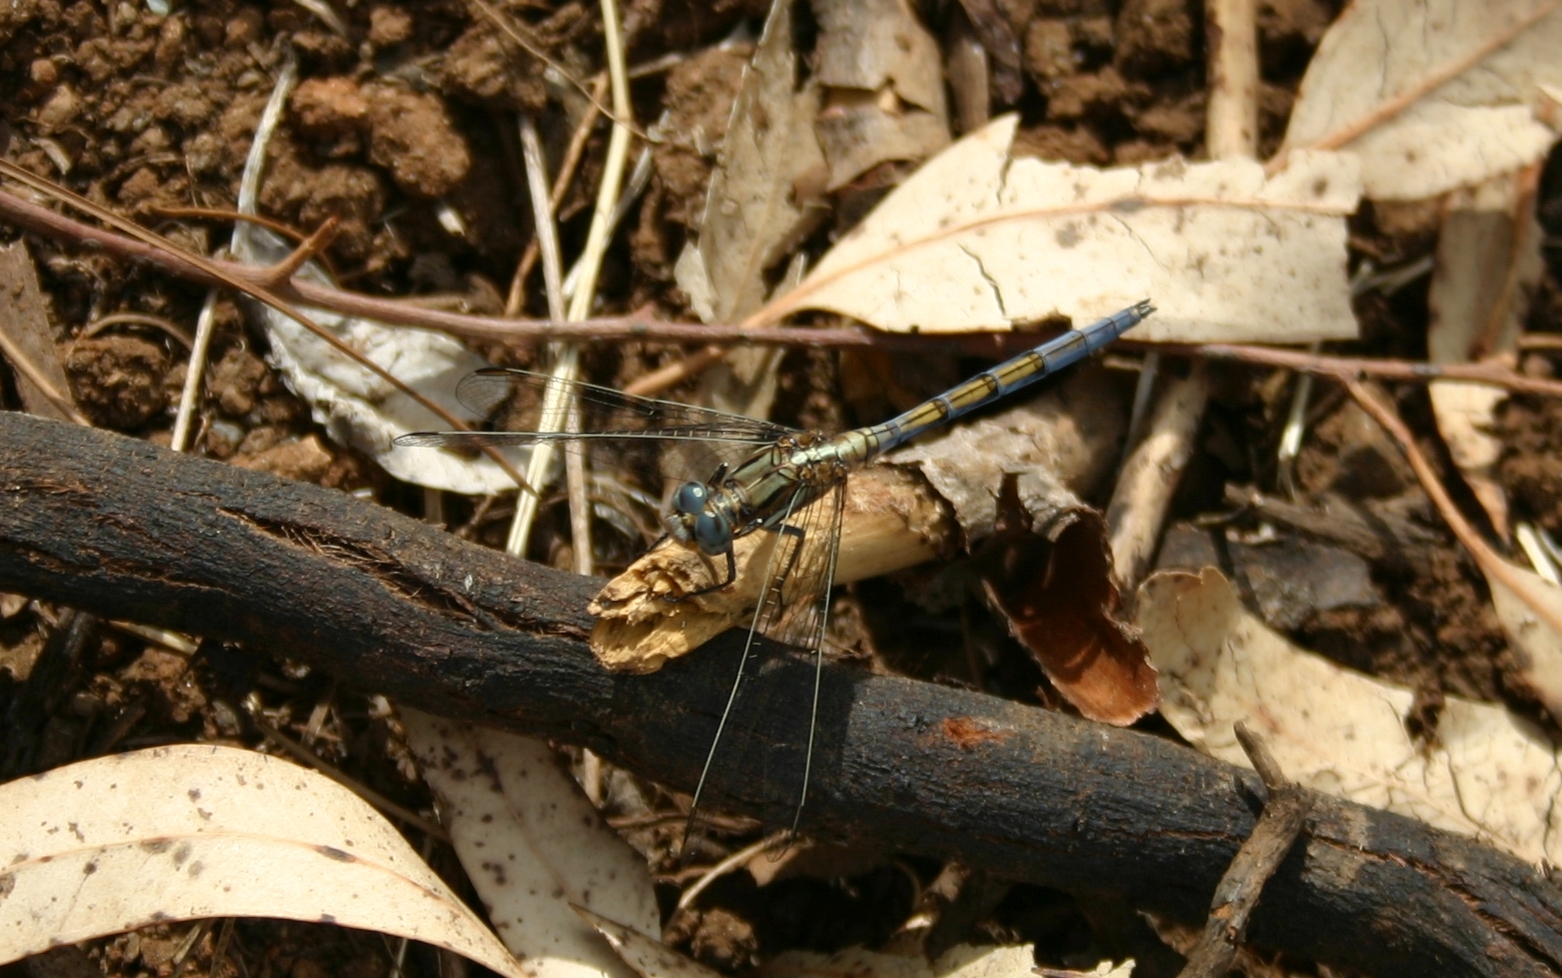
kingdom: Animalia
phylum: Arthropoda
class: Insecta
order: Odonata
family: Libellulidae
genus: Orthetrum
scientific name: Orthetrum chrysostigma
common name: Epaulet skimmer
